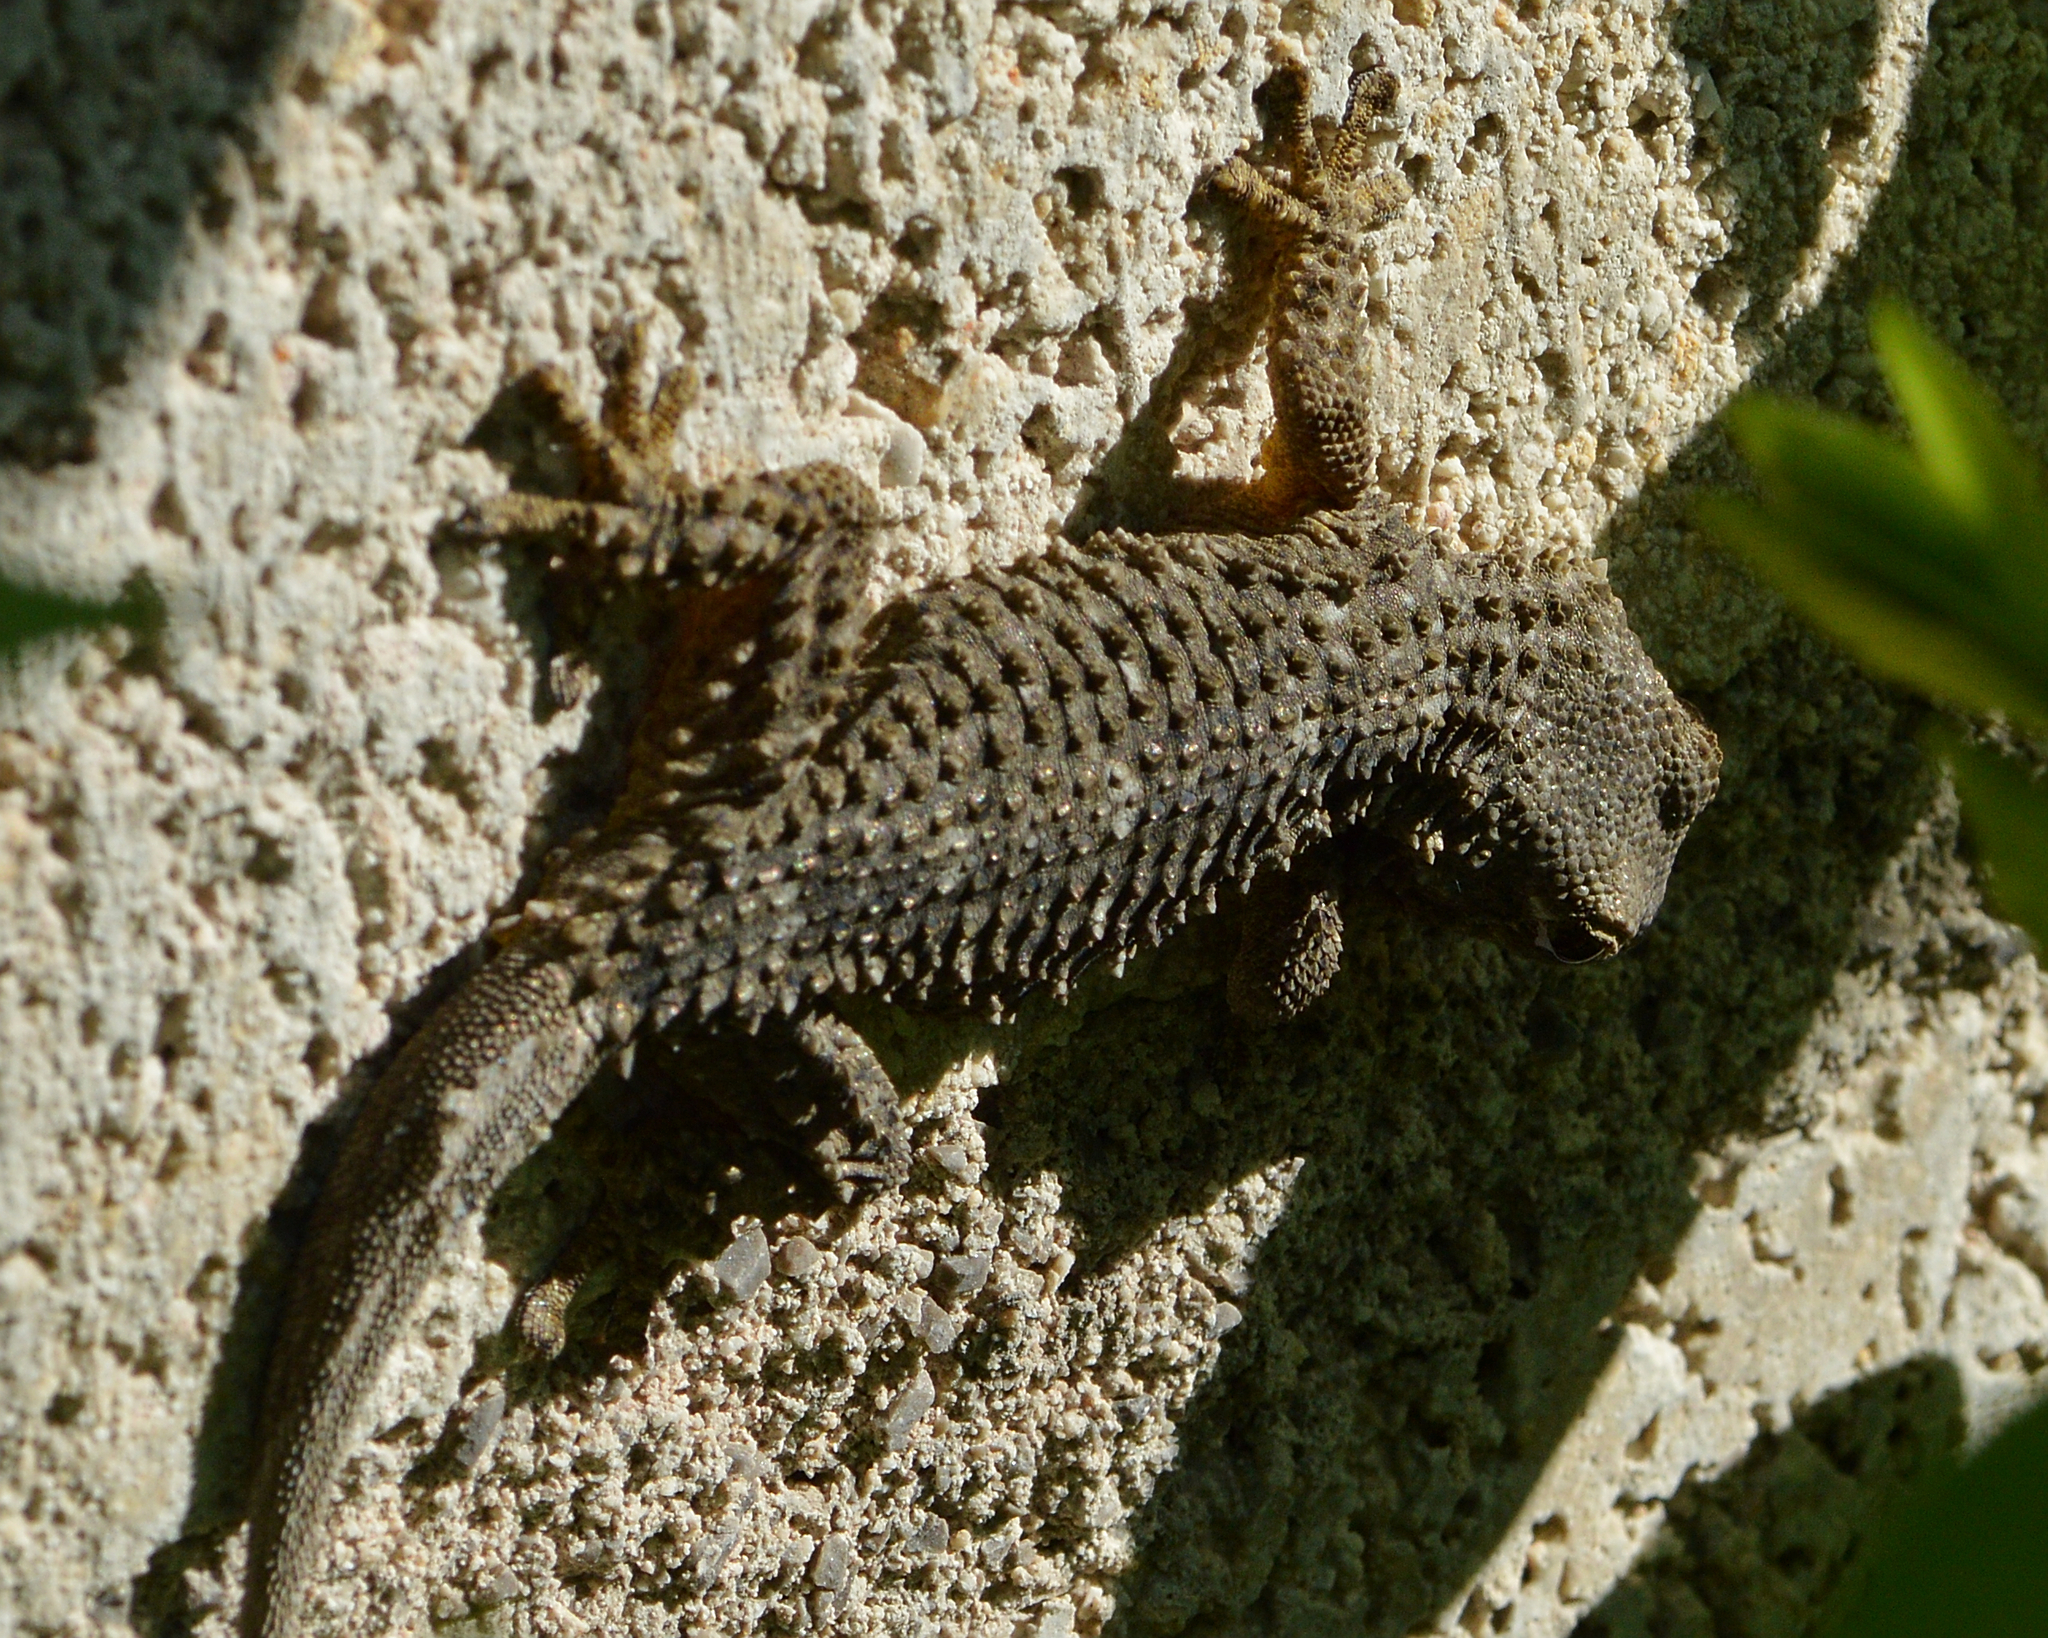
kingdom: Animalia
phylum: Chordata
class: Squamata
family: Phyllodactylidae
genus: Tarentola
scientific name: Tarentola mauritanica
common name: Moorish gecko
